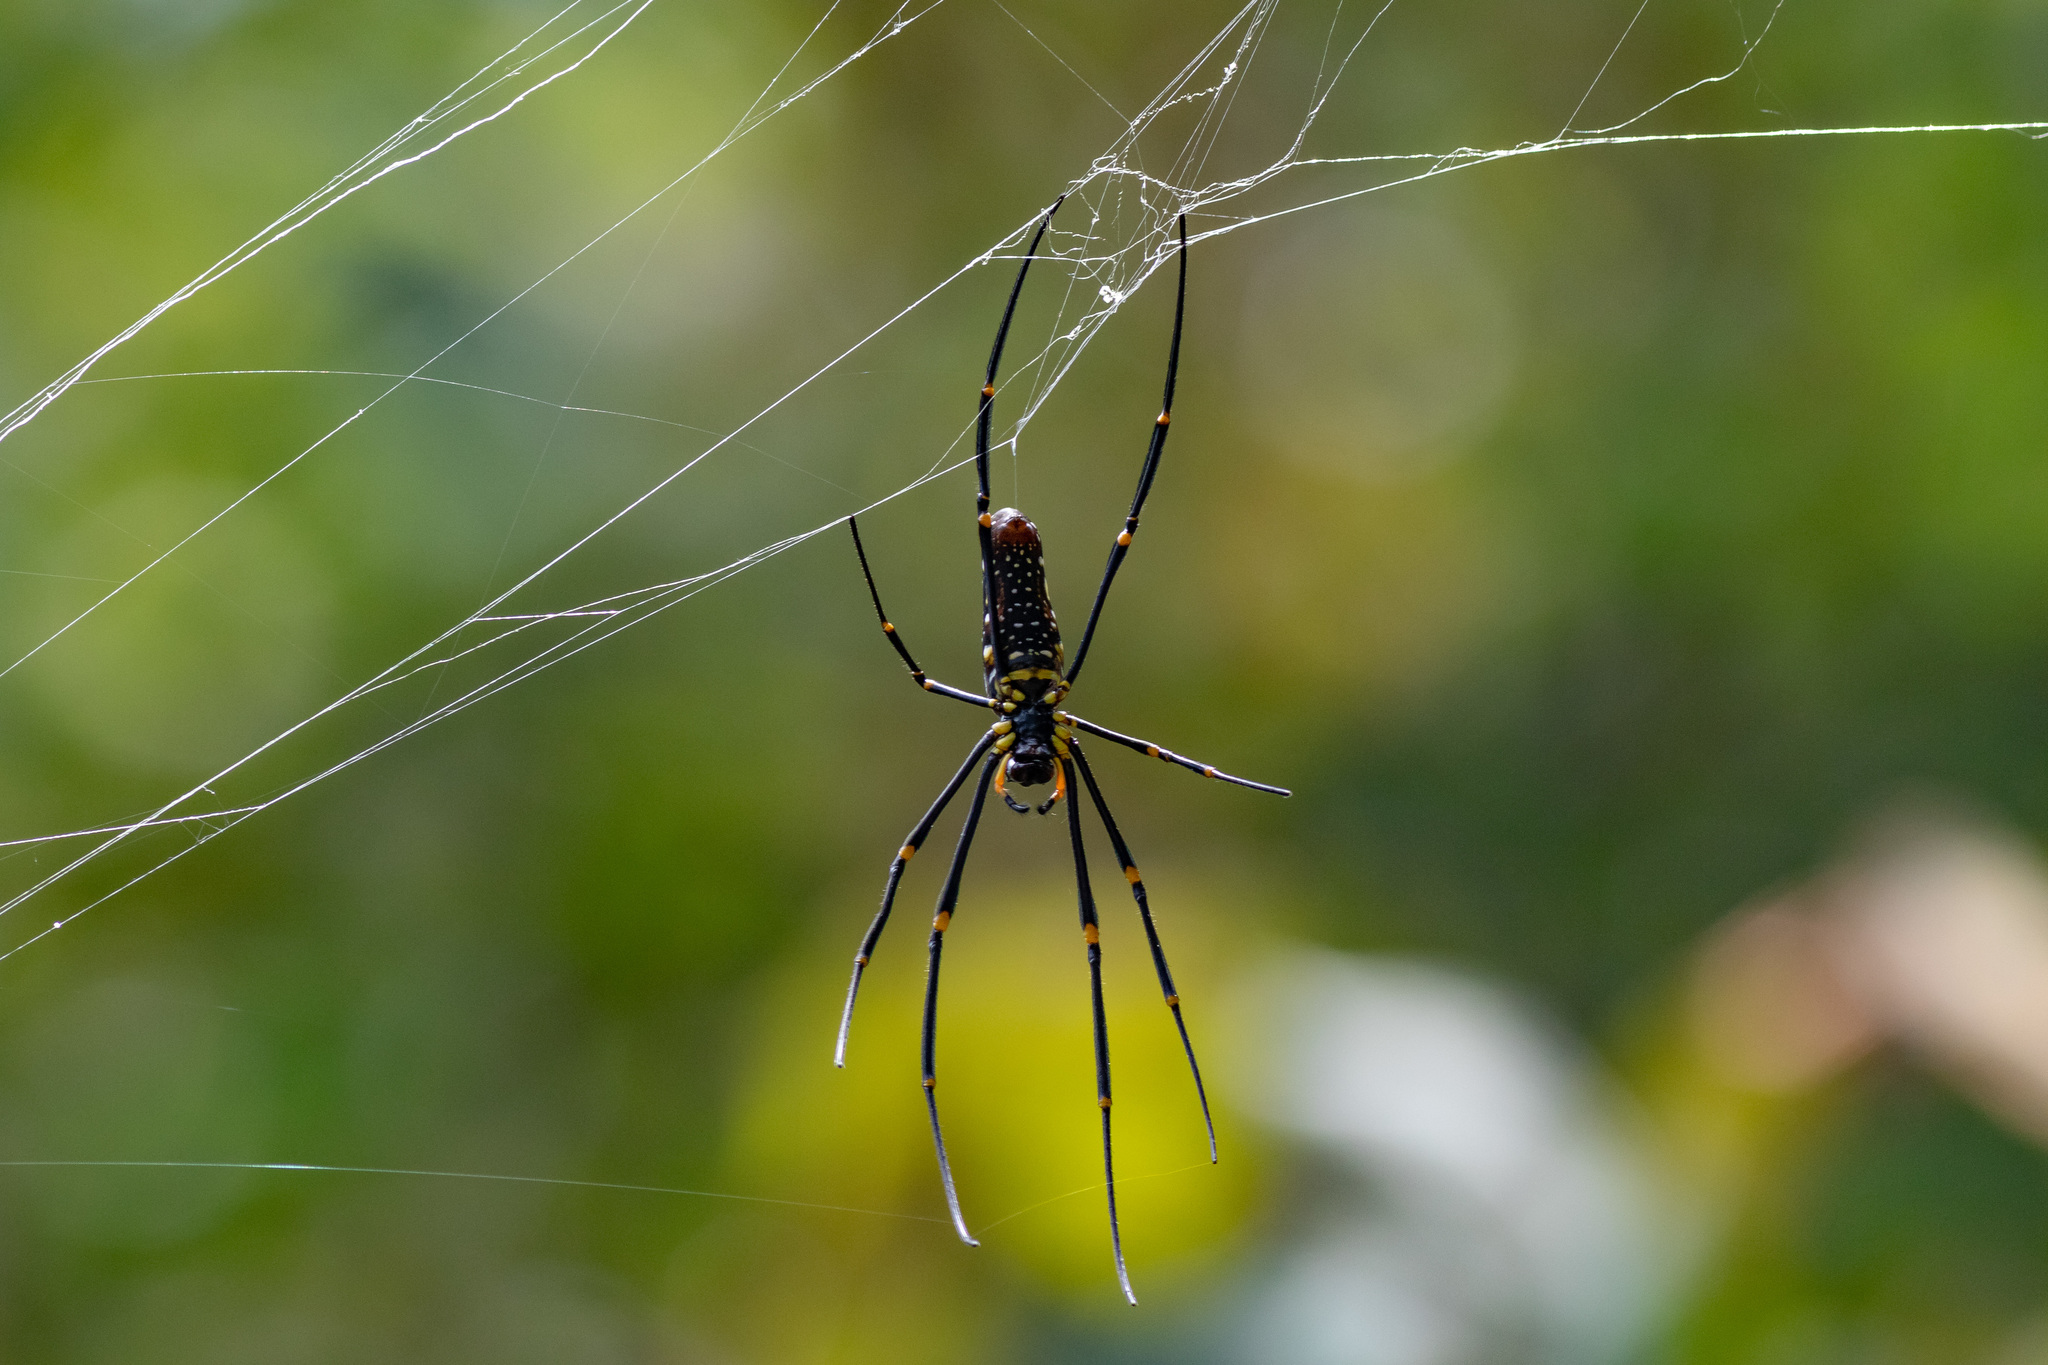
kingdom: Animalia
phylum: Arthropoda
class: Arachnida
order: Araneae
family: Araneidae
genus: Nephila
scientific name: Nephila pilipes
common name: Giant golden orb weaver
